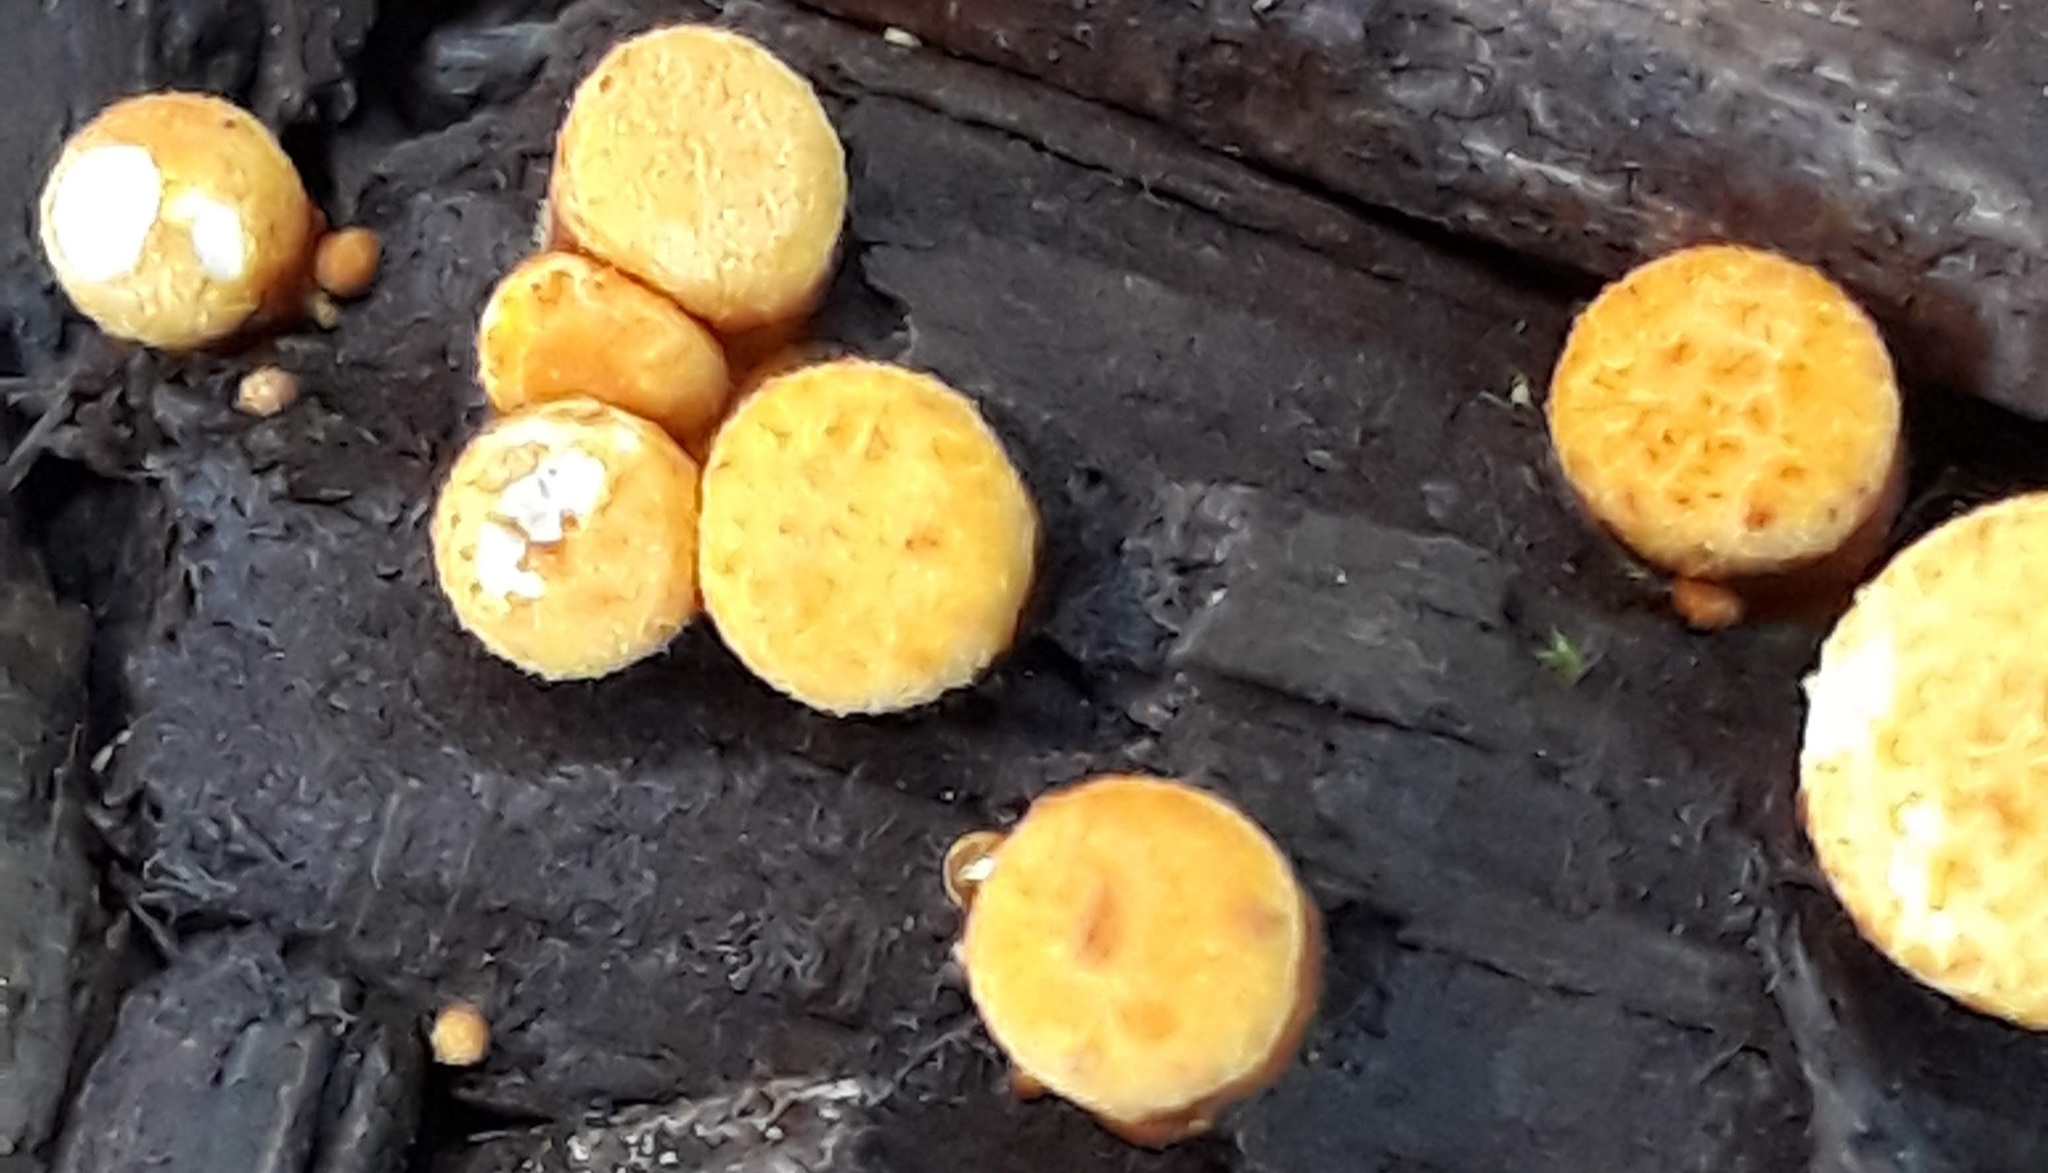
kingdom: Fungi
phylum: Basidiomycota
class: Agaricomycetes
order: Agaricales
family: Nidulariaceae
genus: Crucibulum
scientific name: Crucibulum laeve
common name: Common bird's nest
